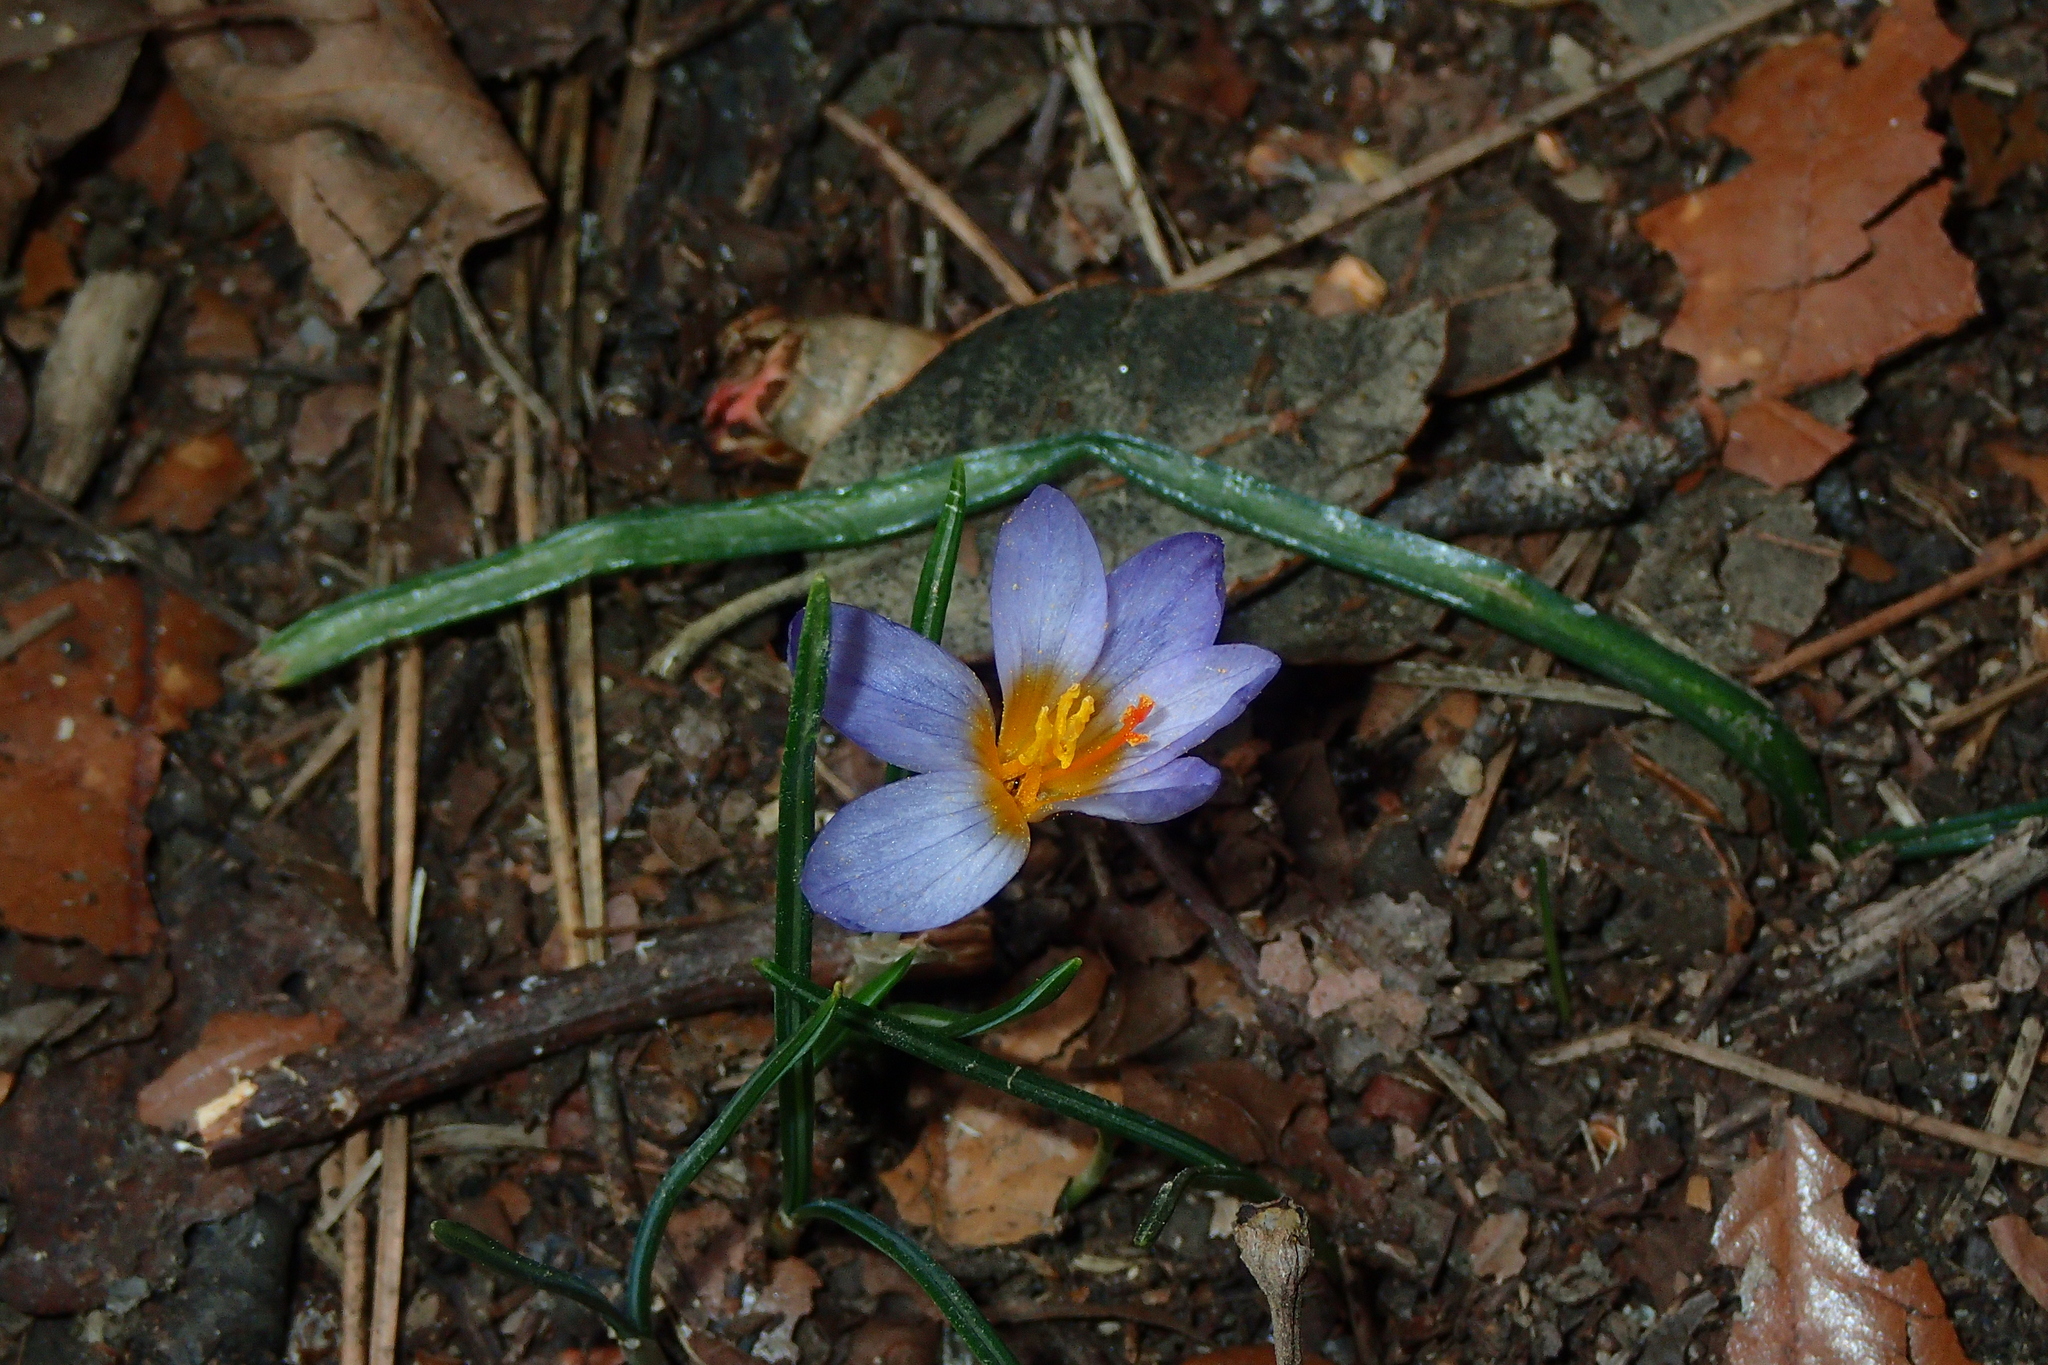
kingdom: Plantae
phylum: Tracheophyta
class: Liliopsida
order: Asparagales
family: Iridaceae
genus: Crocus
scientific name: Crocus cyprius
